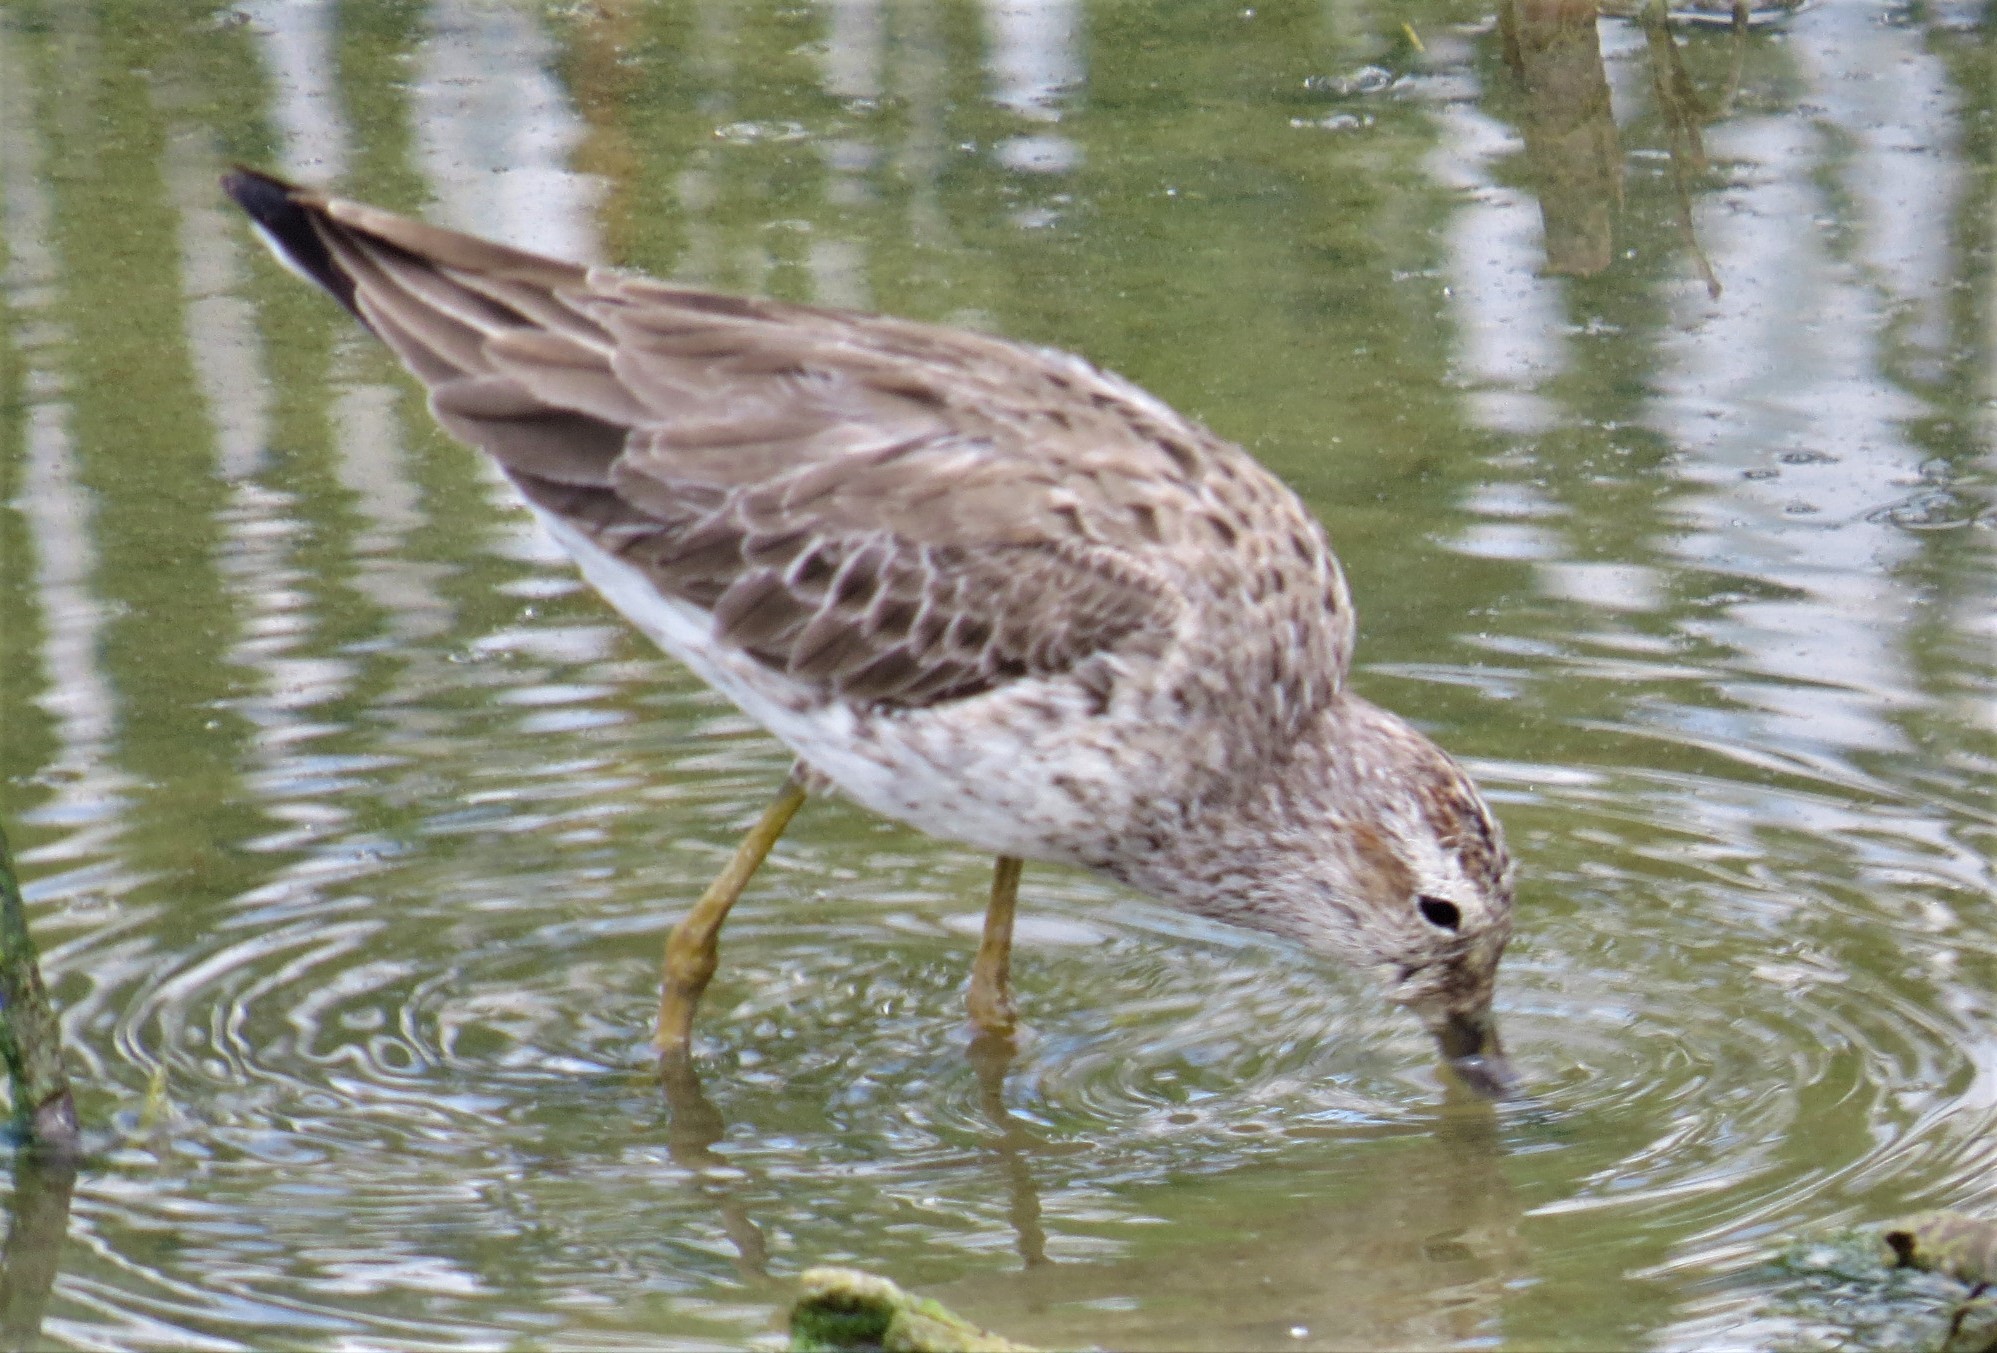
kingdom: Animalia
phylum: Chordata
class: Aves
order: Charadriiformes
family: Scolopacidae
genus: Calidris
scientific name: Calidris himantopus
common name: Stilt sandpiper
